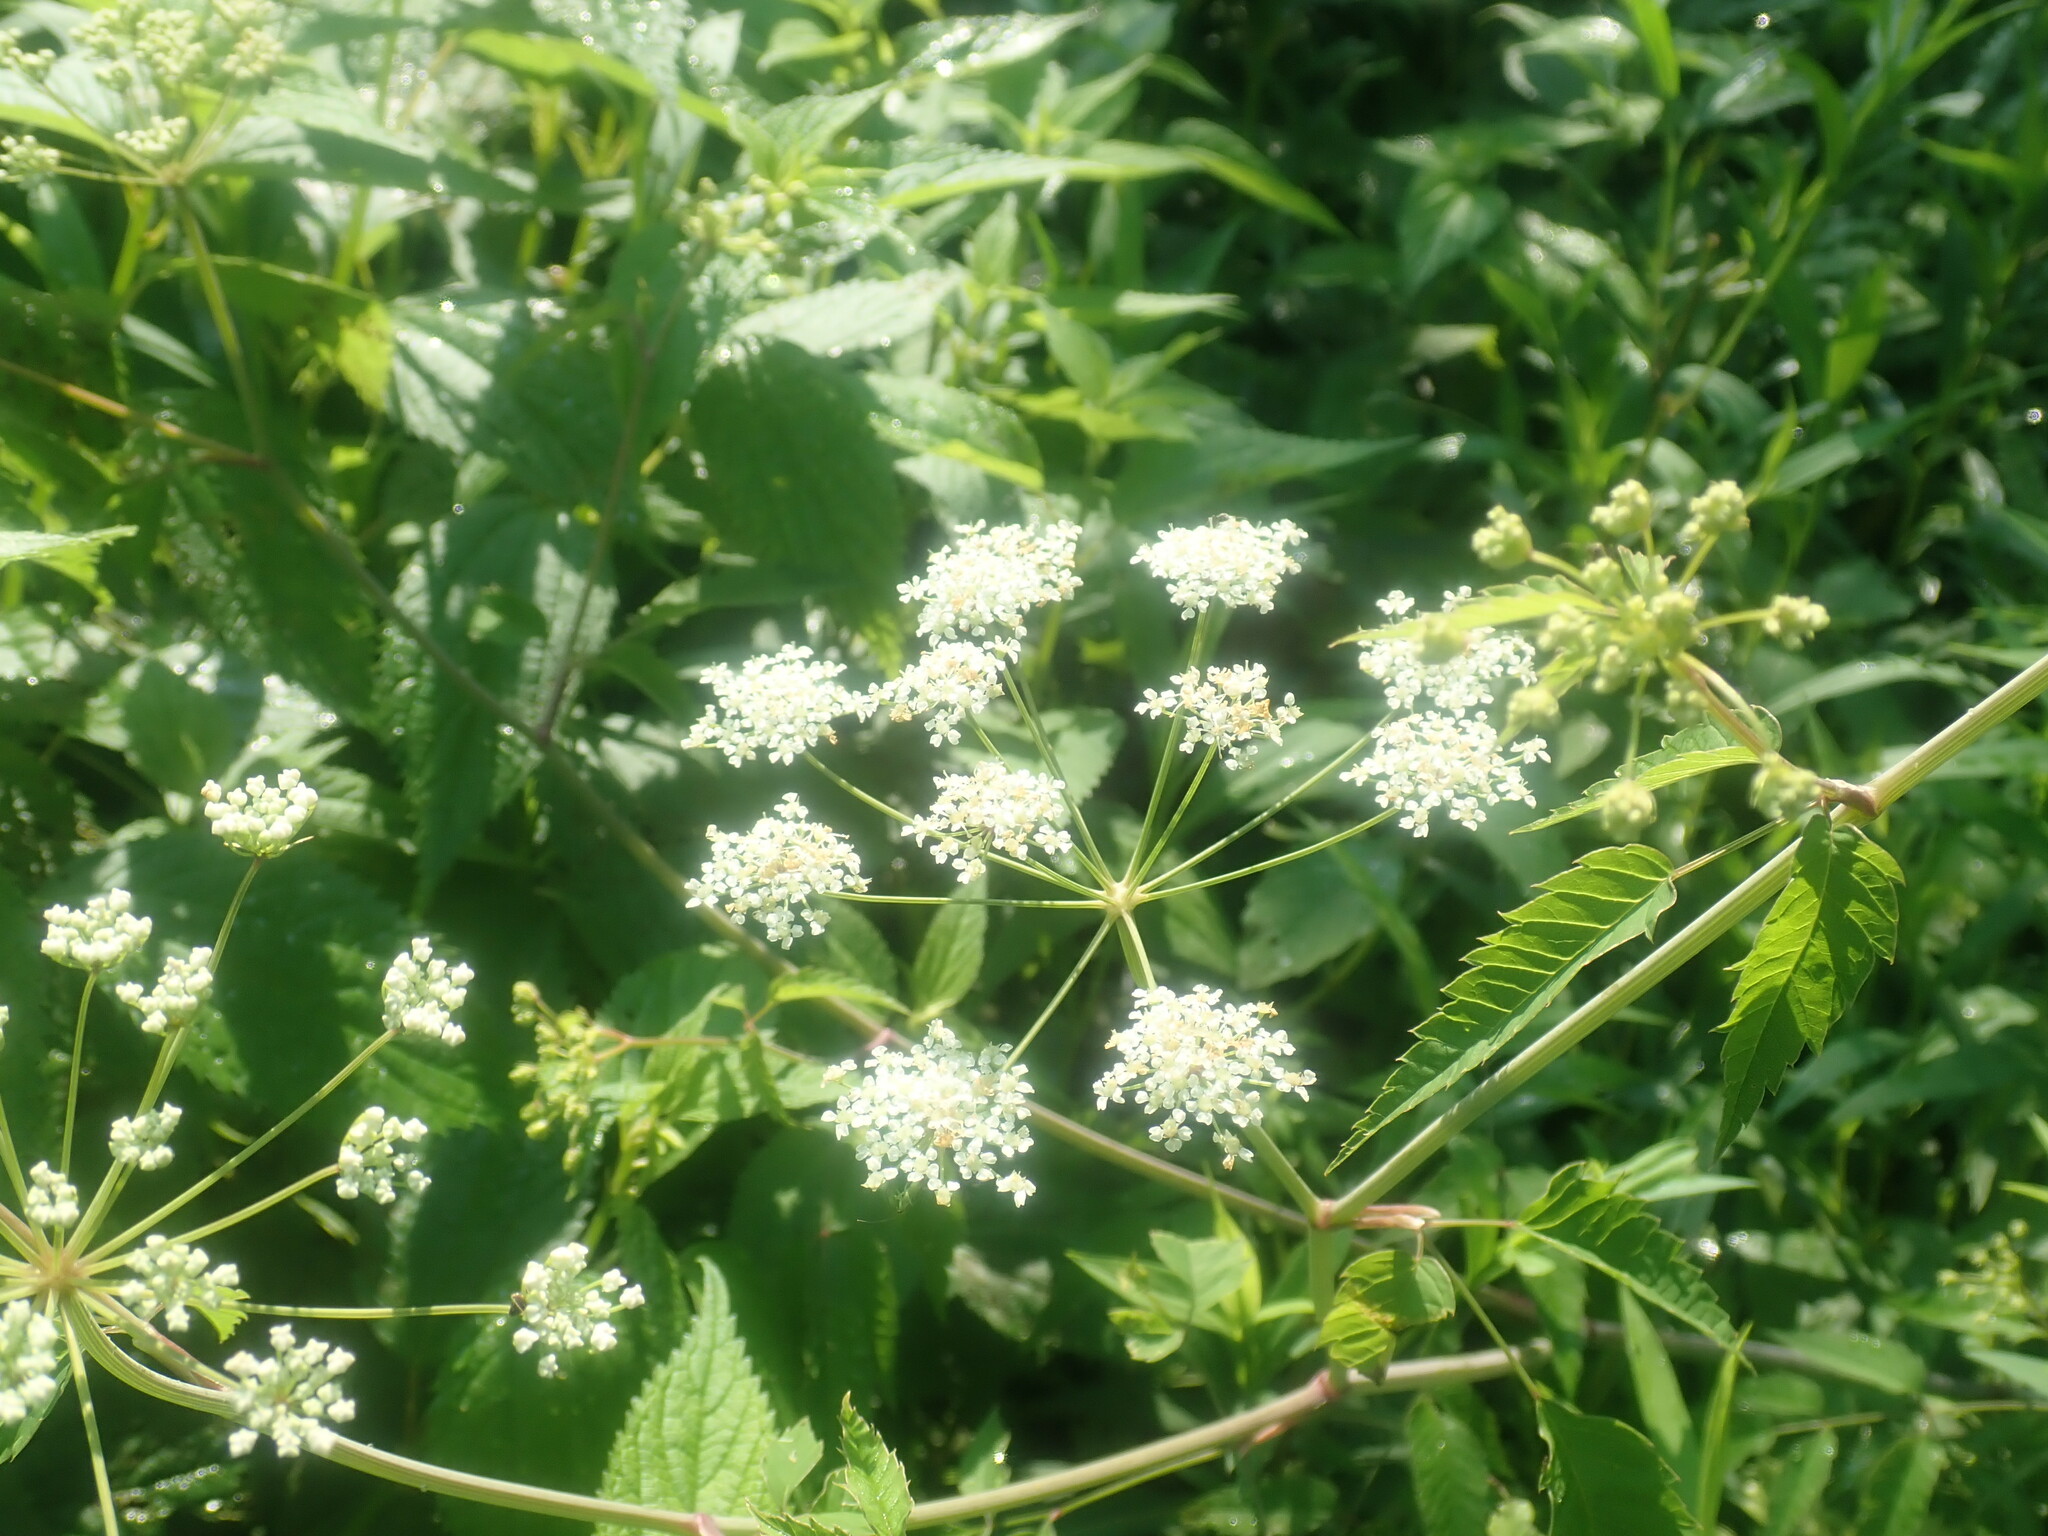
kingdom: Plantae
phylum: Tracheophyta
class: Magnoliopsida
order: Apiales
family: Apiaceae
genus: Cicuta
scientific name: Cicuta maculata
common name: Spotted cowbane
